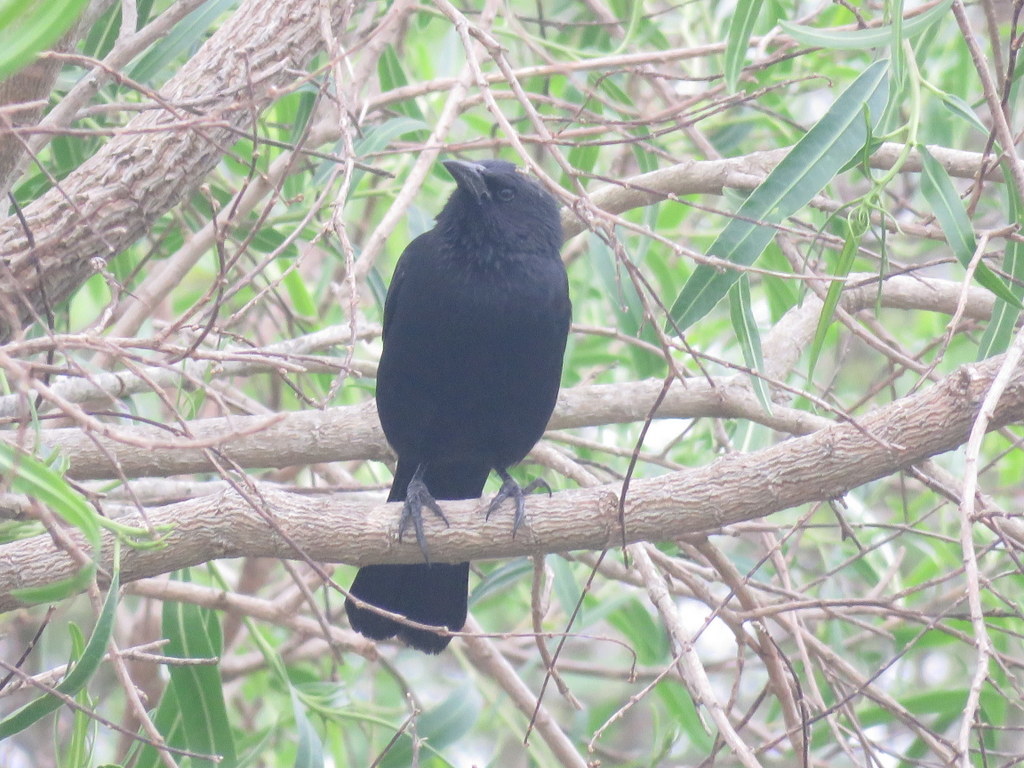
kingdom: Animalia
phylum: Chordata
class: Aves
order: Passeriformes
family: Icteridae
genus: Gnorimopsar
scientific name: Gnorimopsar chopi
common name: Chopi blackbird
